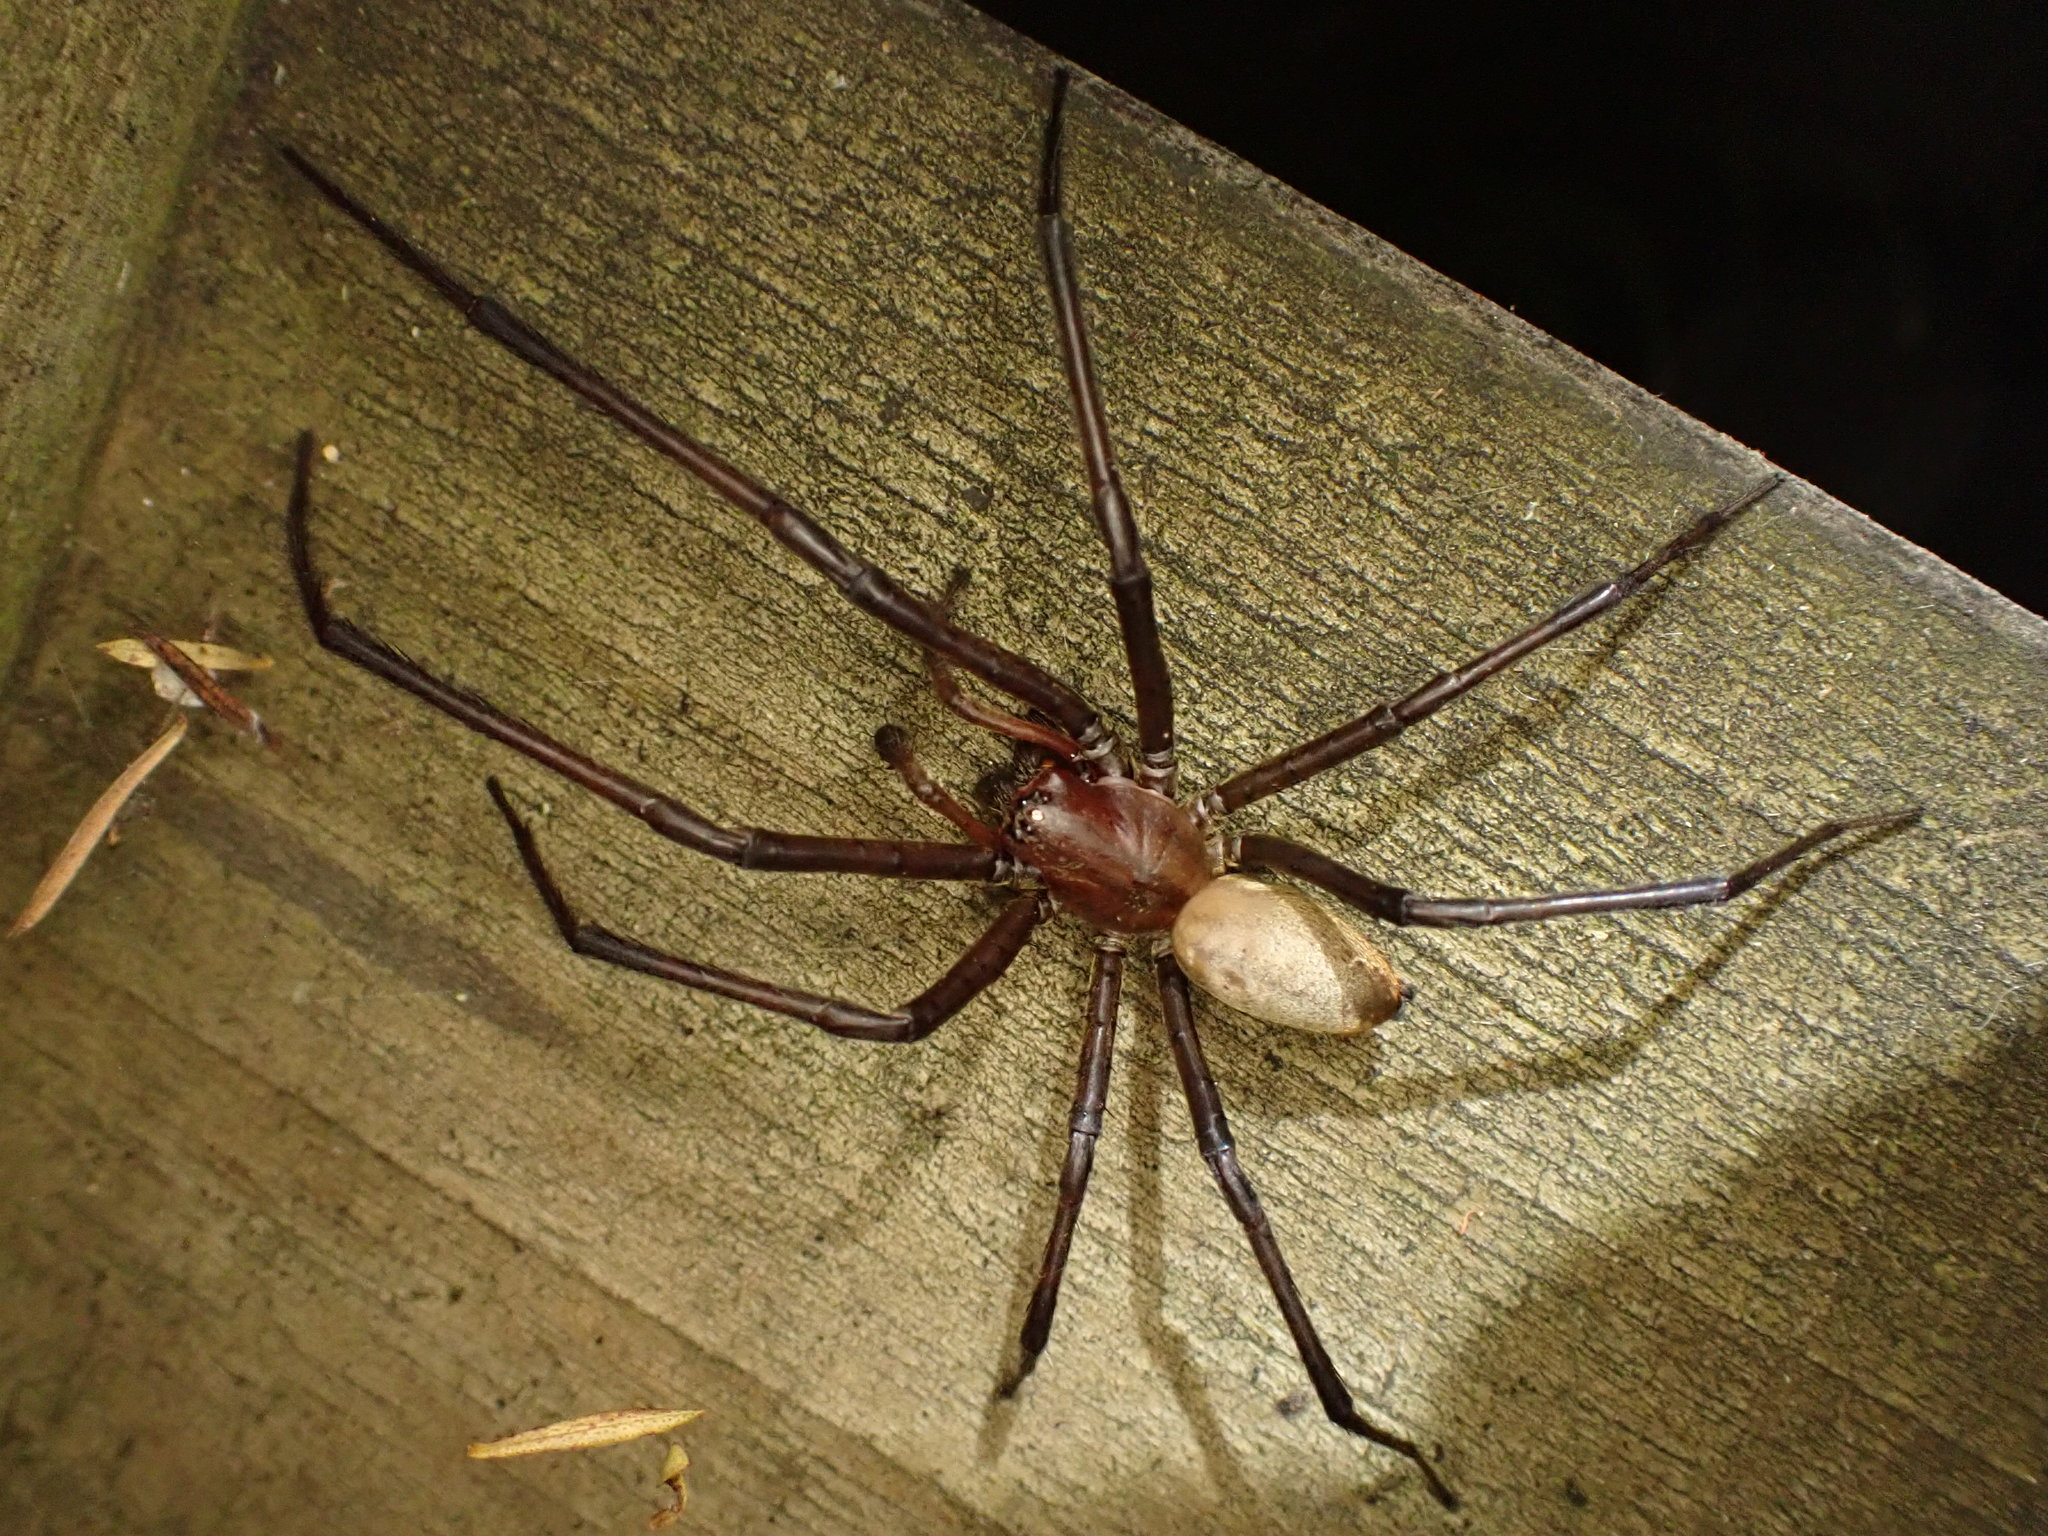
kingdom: Animalia
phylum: Arthropoda
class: Arachnida
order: Araneae
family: Desidae
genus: Cambridgea
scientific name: Cambridgea
